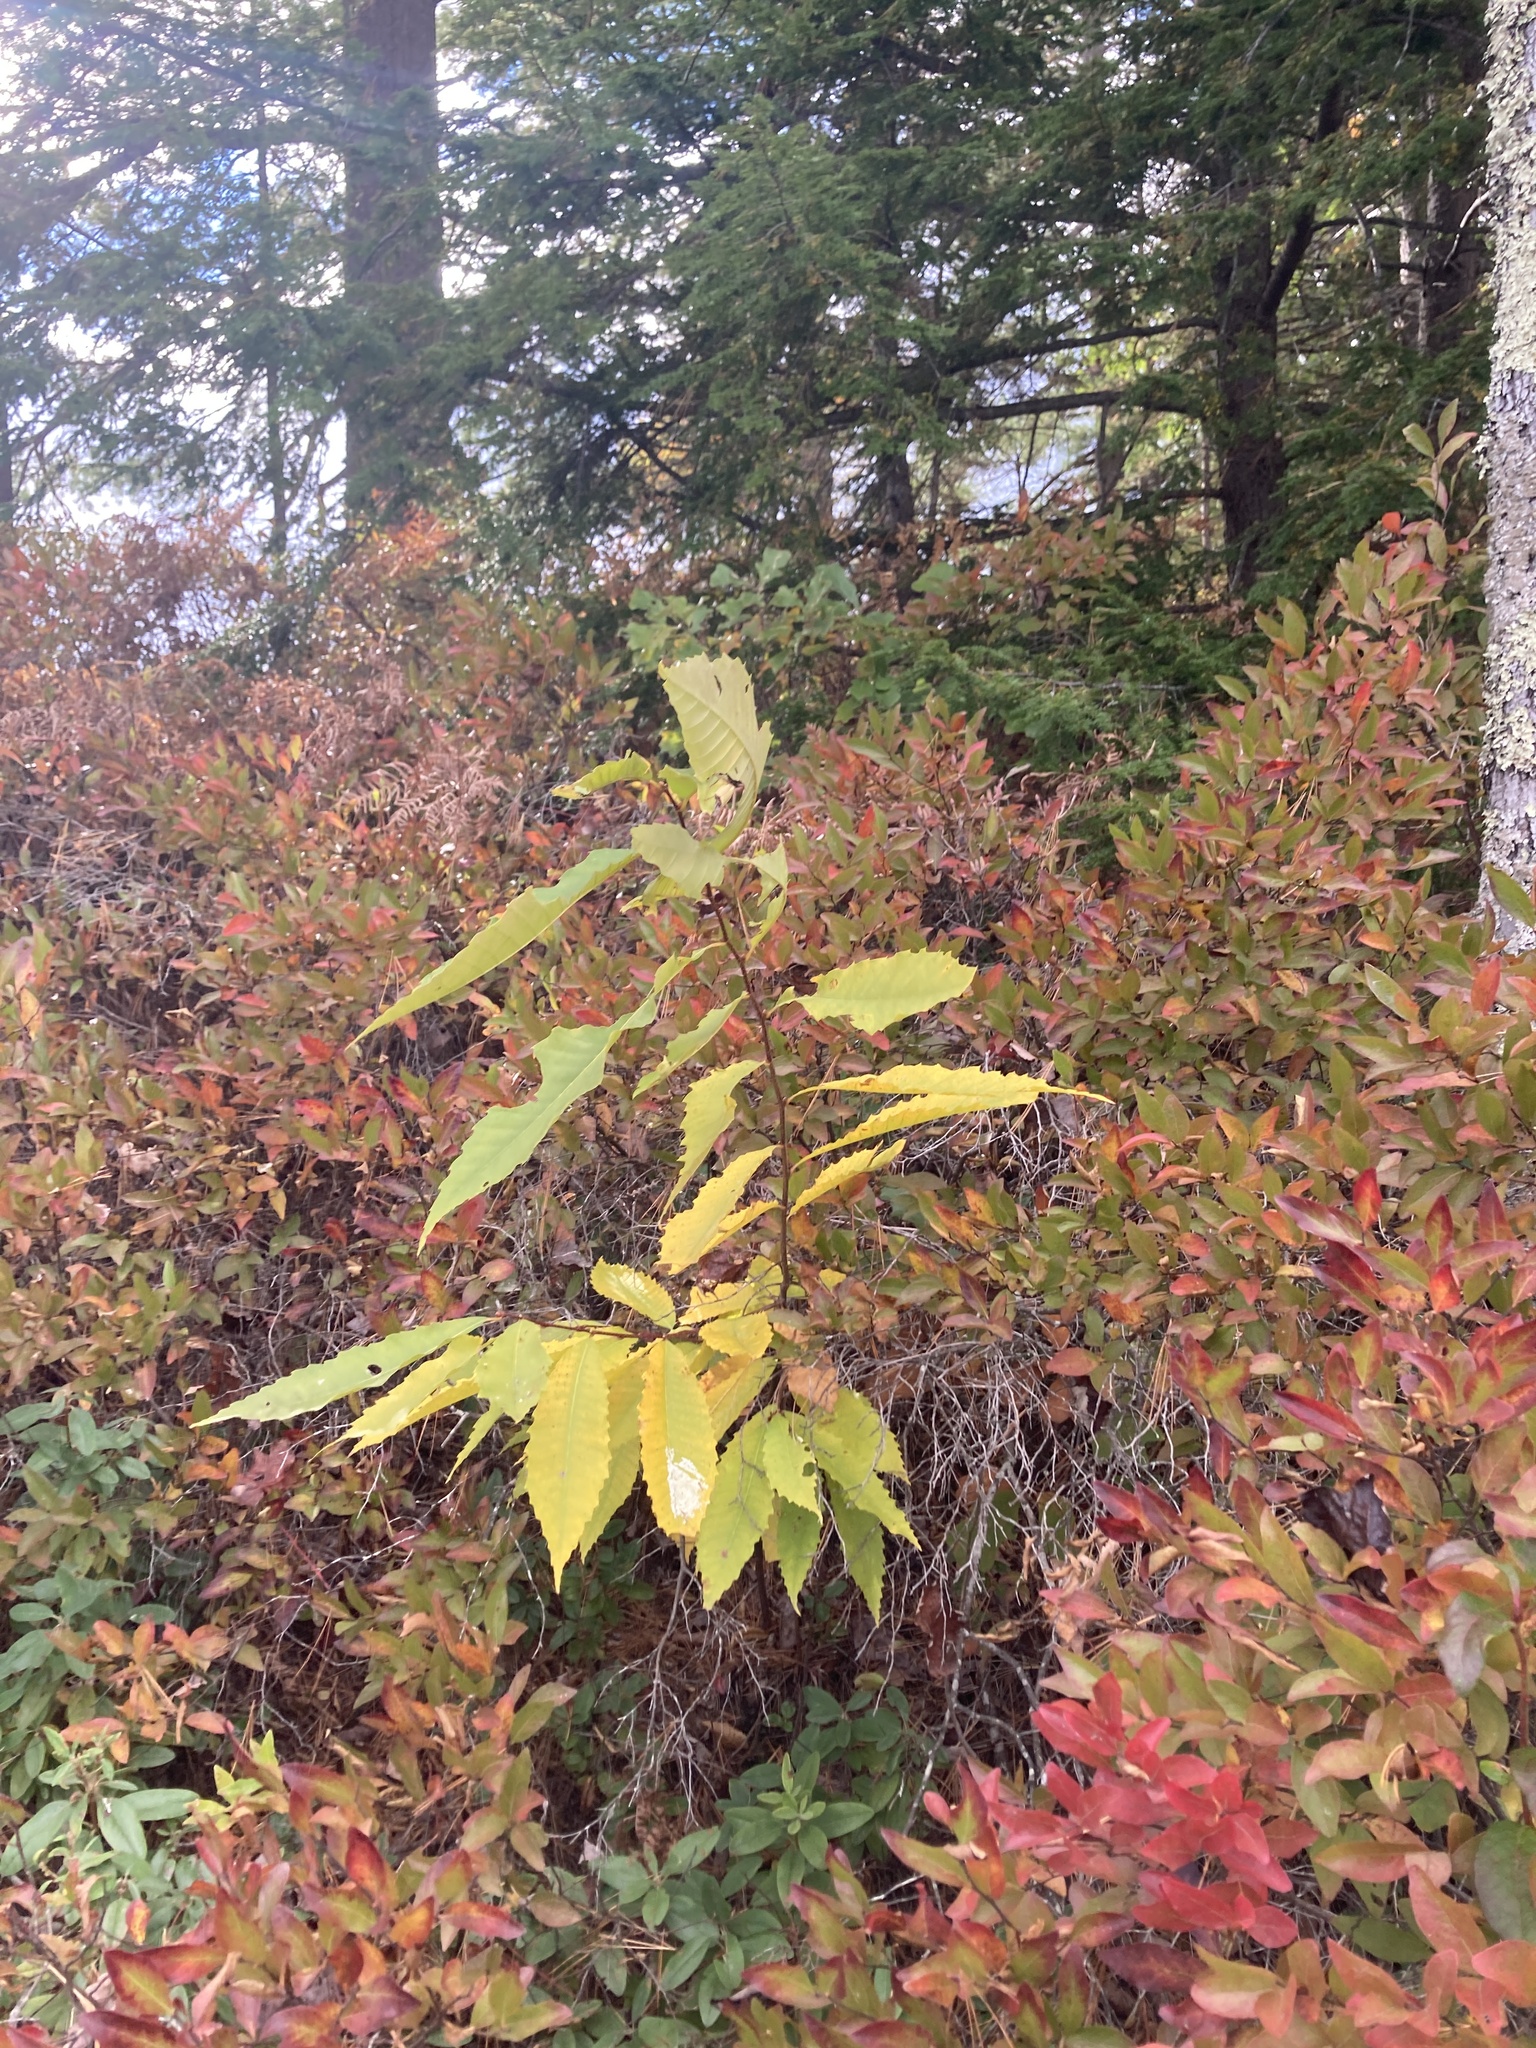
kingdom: Plantae
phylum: Tracheophyta
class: Magnoliopsida
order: Fagales
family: Fagaceae
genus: Castanea
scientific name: Castanea dentata
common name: American chestnut
